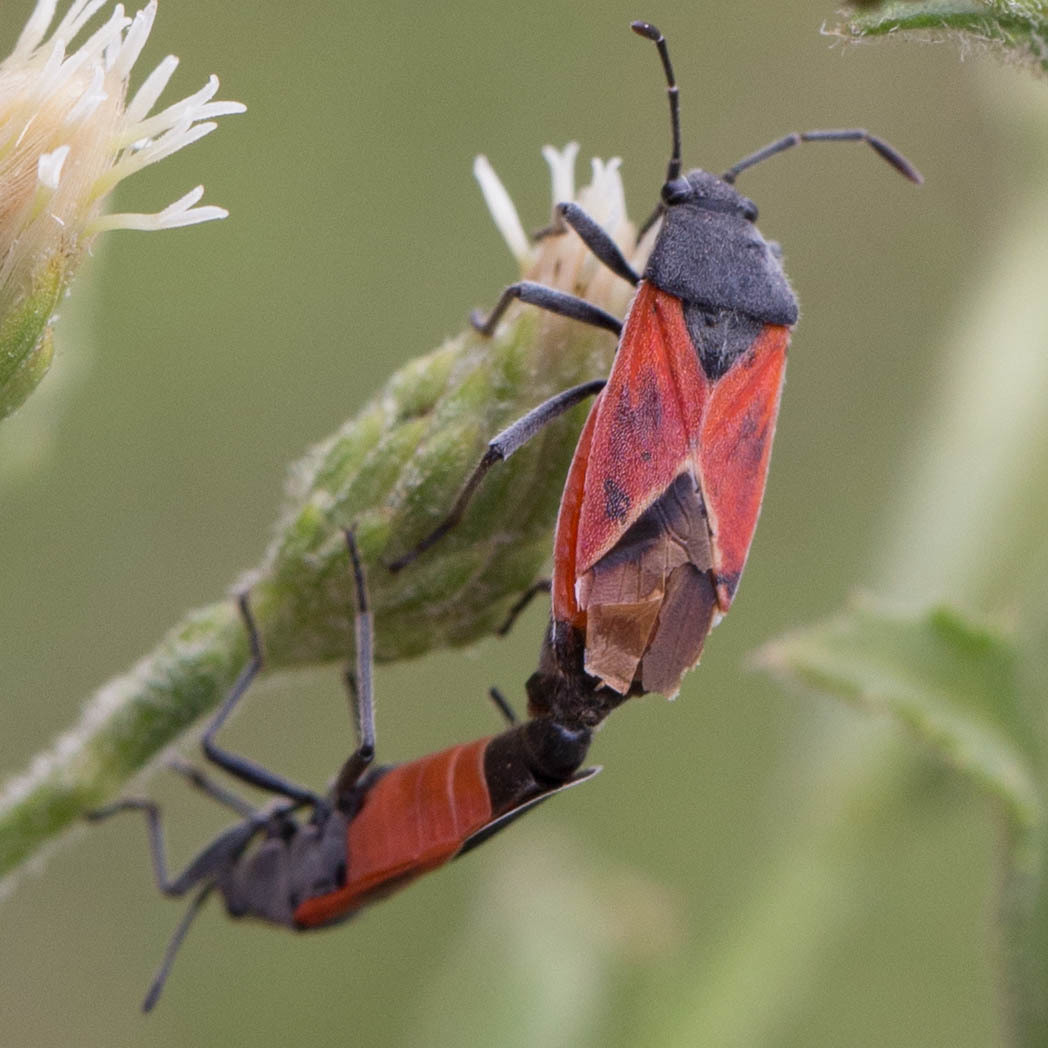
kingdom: Animalia
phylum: Arthropoda
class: Insecta
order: Hemiptera
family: Lygaeidae
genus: Melanopleurus
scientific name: Melanopleurus fuscosus
